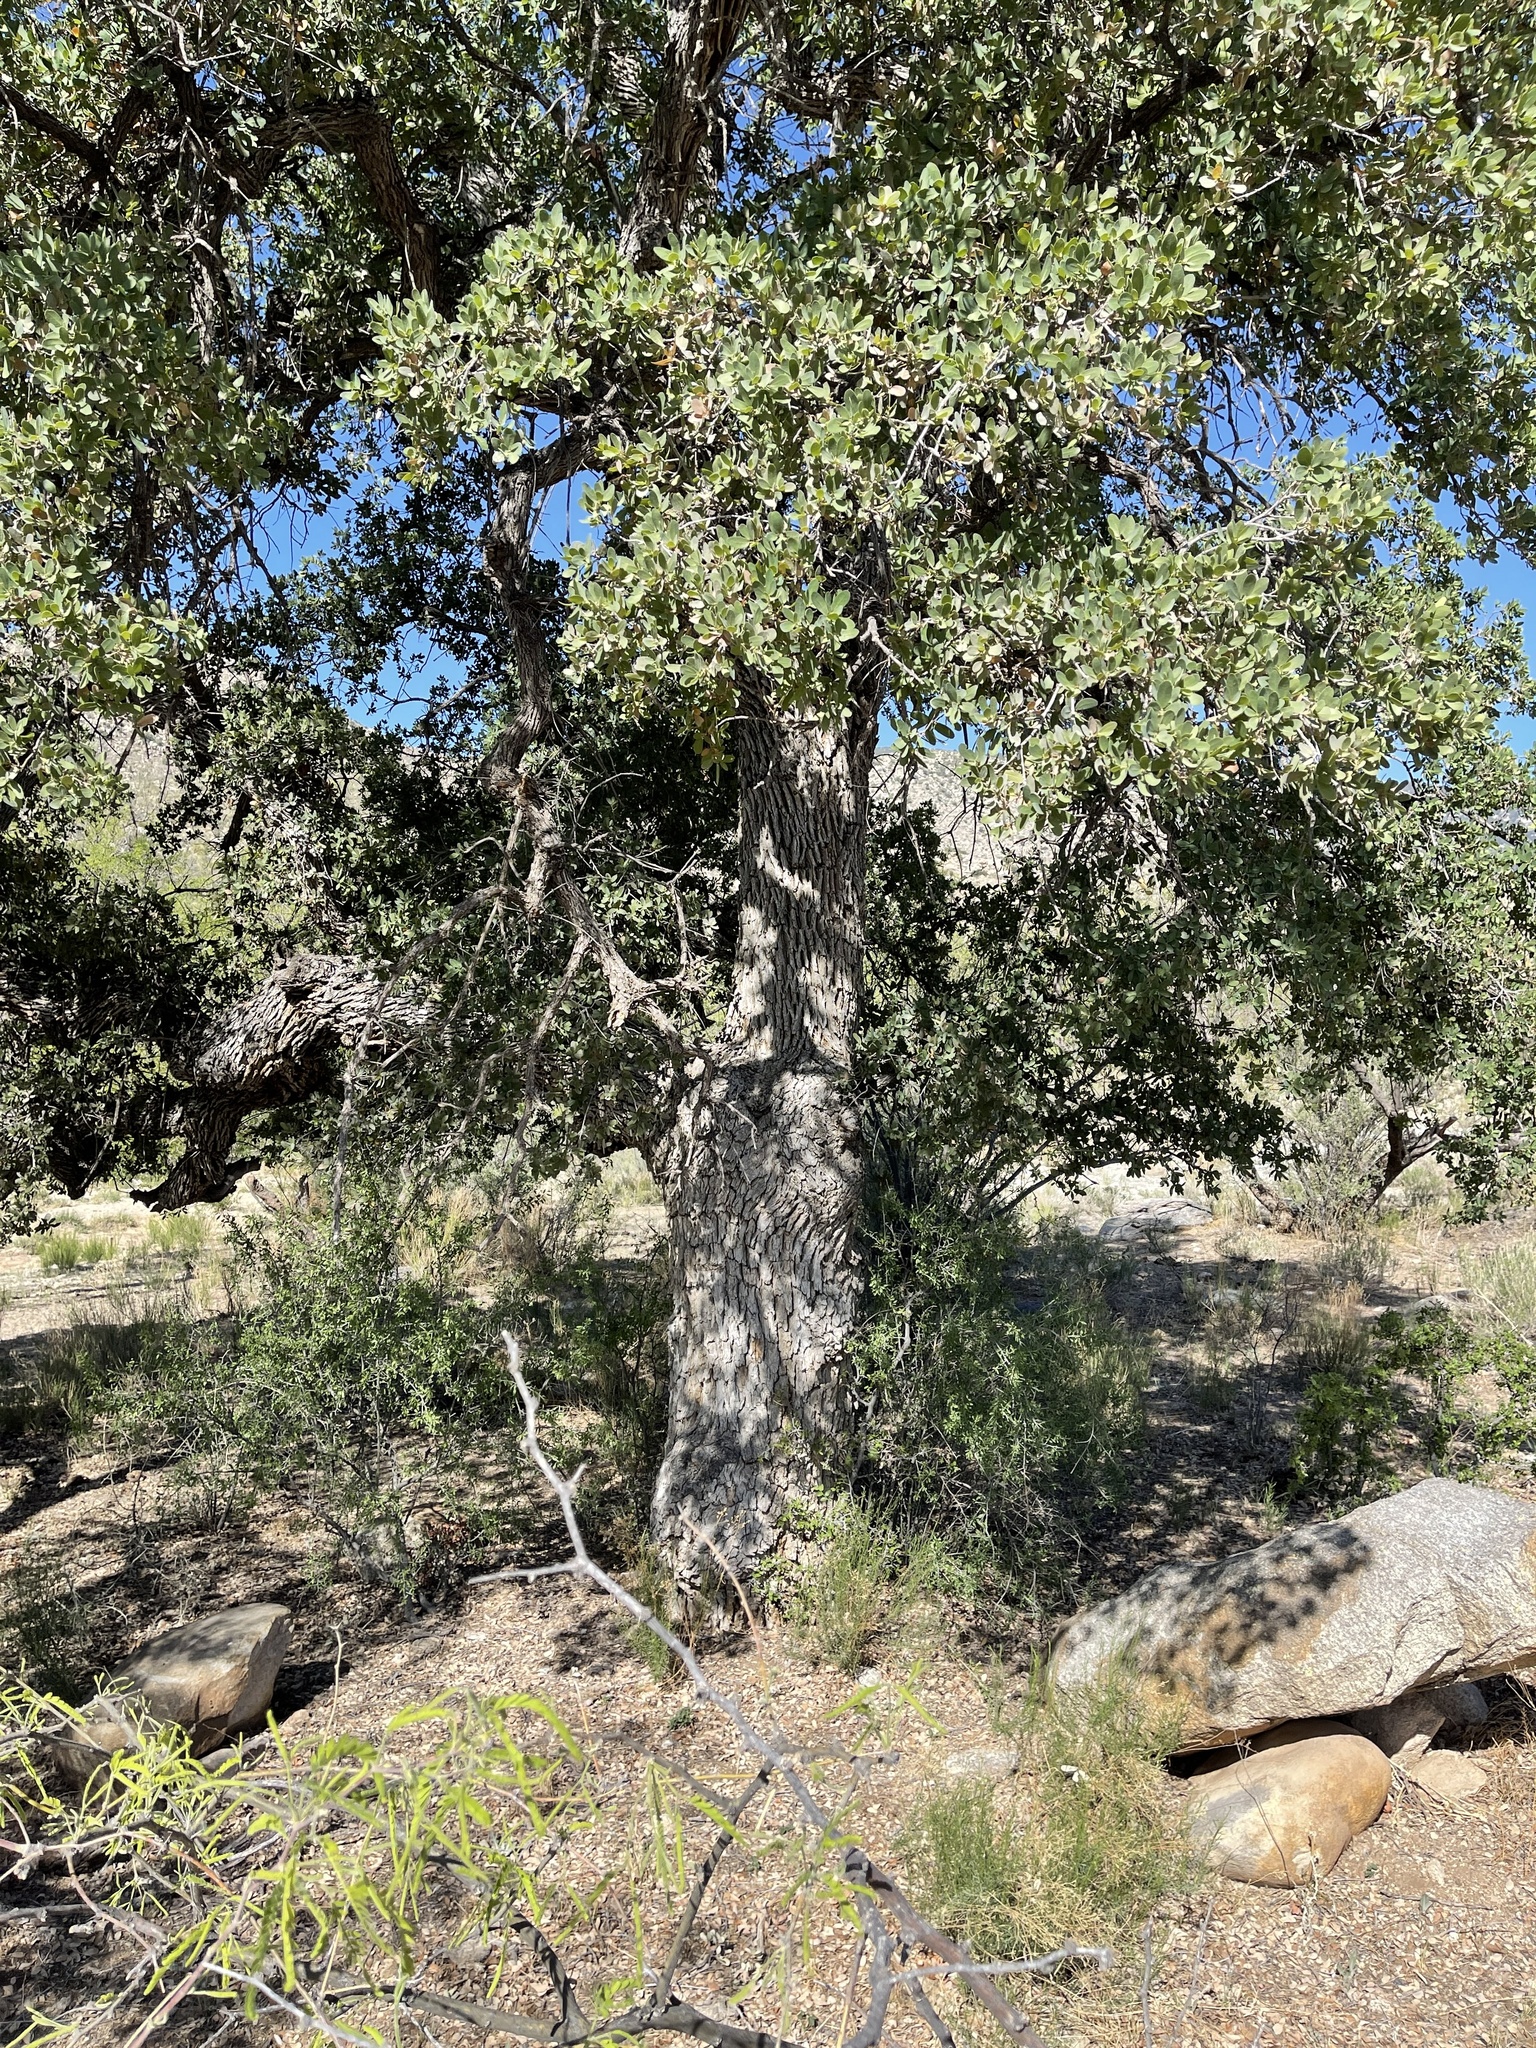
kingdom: Plantae
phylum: Tracheophyta
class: Magnoliopsida
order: Fagales
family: Fagaceae
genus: Quercus
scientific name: Quercus arizonica
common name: Arizona white oak
